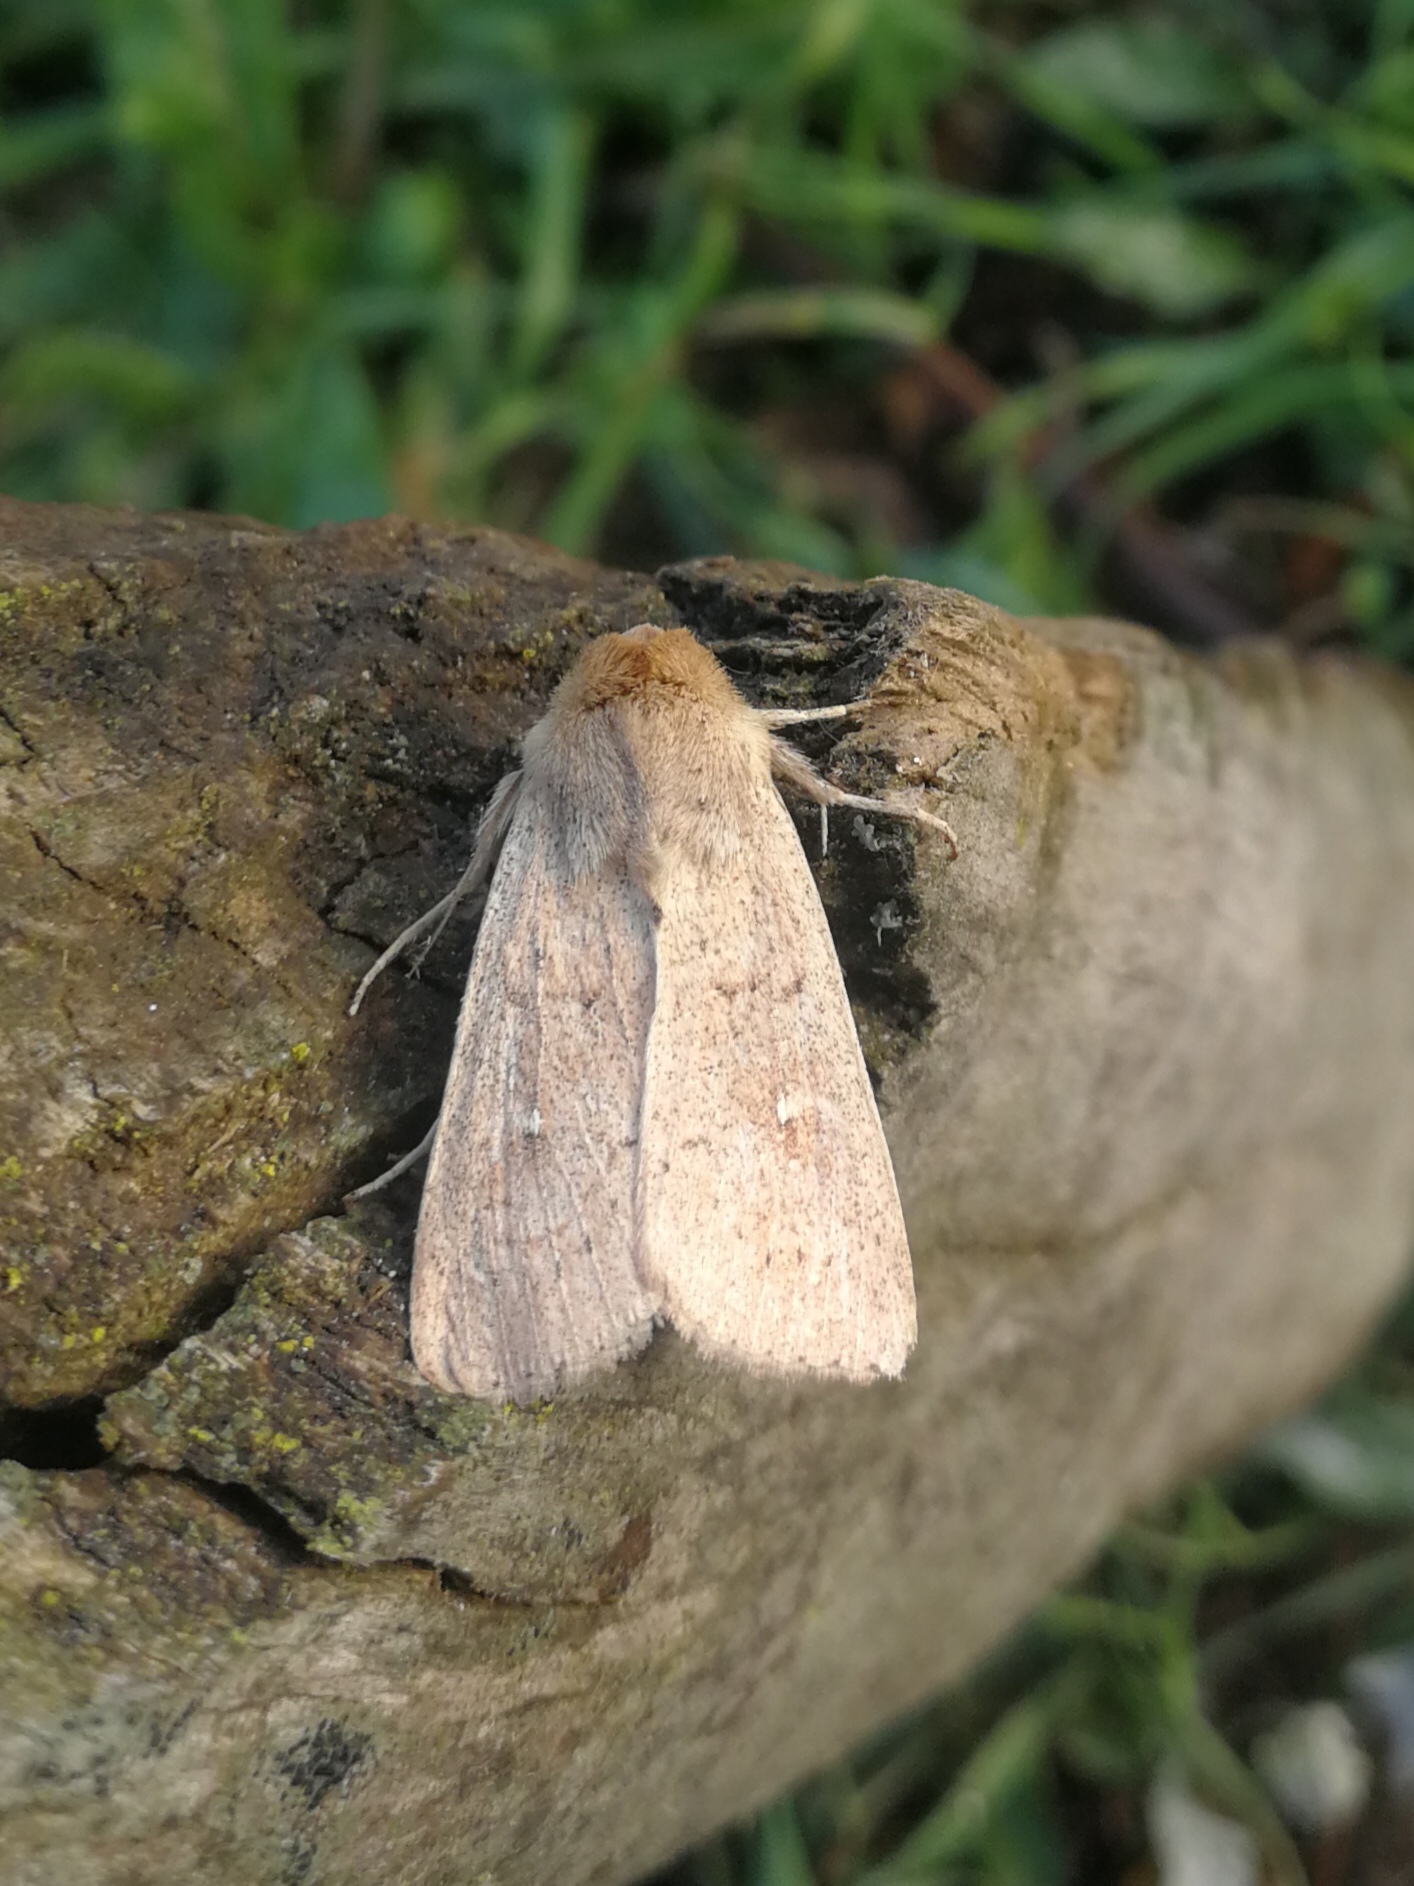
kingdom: Animalia
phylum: Arthropoda
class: Insecta
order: Lepidoptera
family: Noctuidae
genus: Mythimna
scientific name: Mythimna ferrago
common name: Clay
